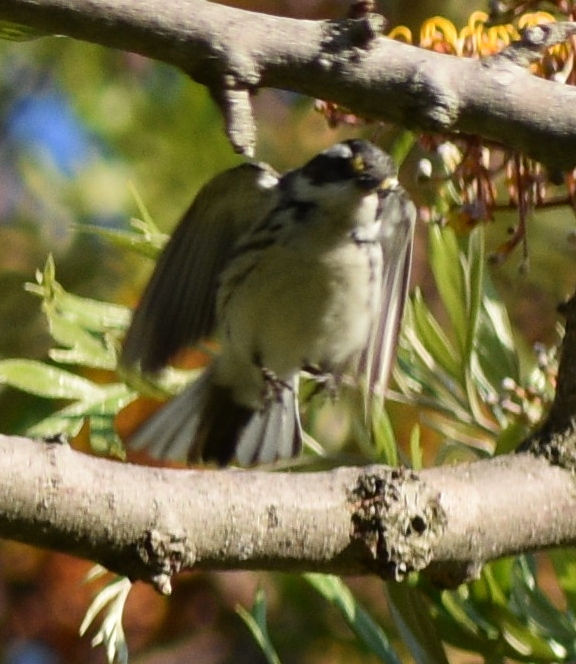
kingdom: Animalia
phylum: Chordata
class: Aves
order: Passeriformes
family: Parulidae
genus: Setophaga
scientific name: Setophaga nigrescens
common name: Black-throated gray warbler
